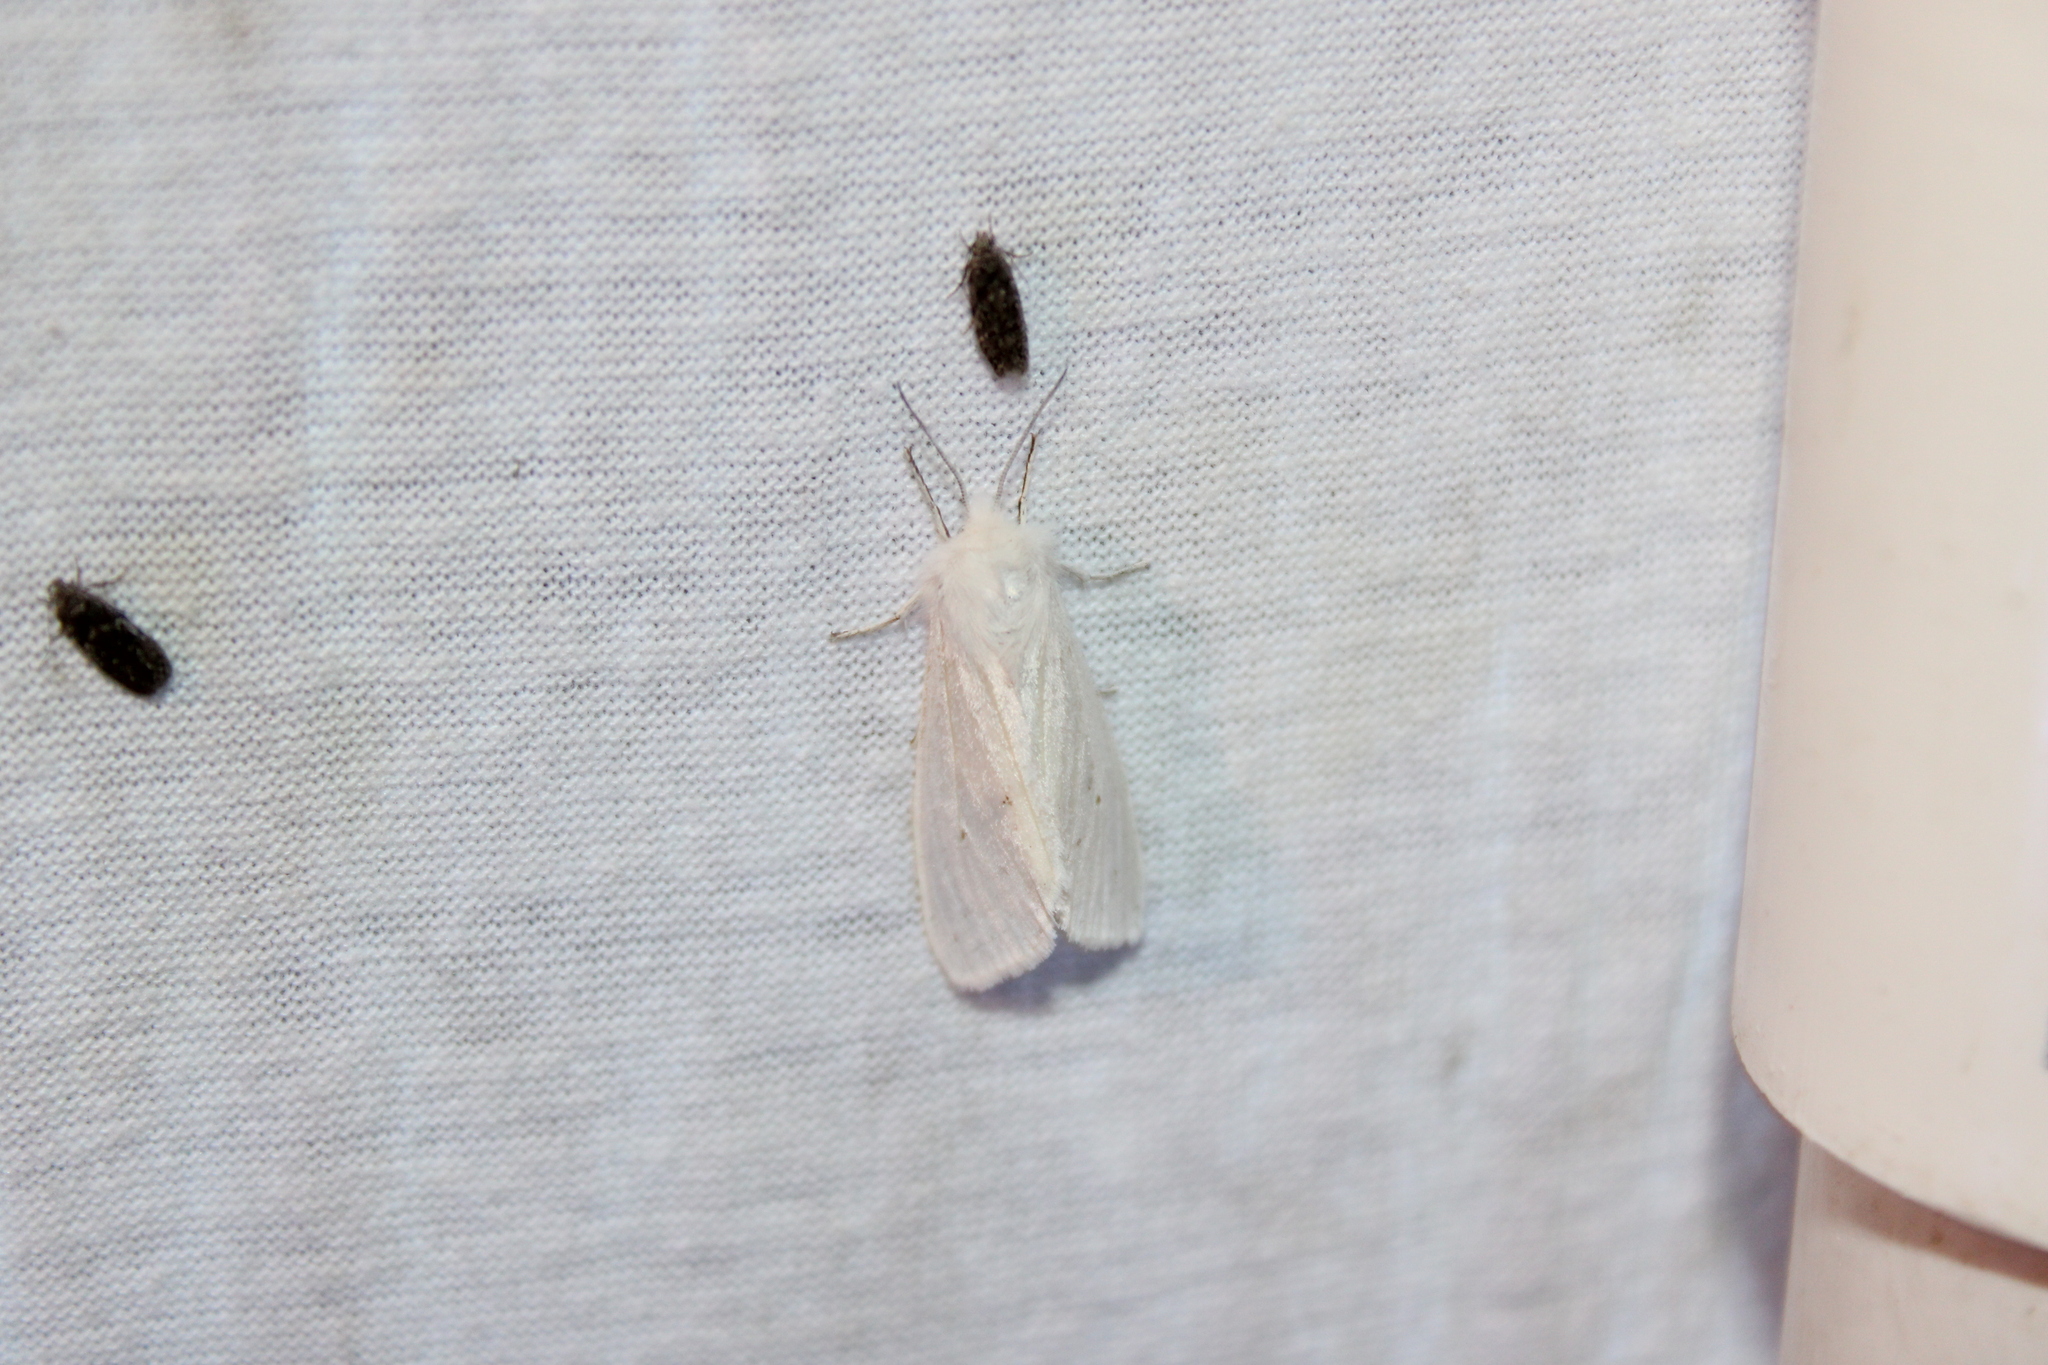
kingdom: Animalia
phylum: Arthropoda
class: Insecta
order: Lepidoptera
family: Erebidae
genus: Spilosoma
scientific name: Spilosoma congrua
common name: Agreeable tiger moth
